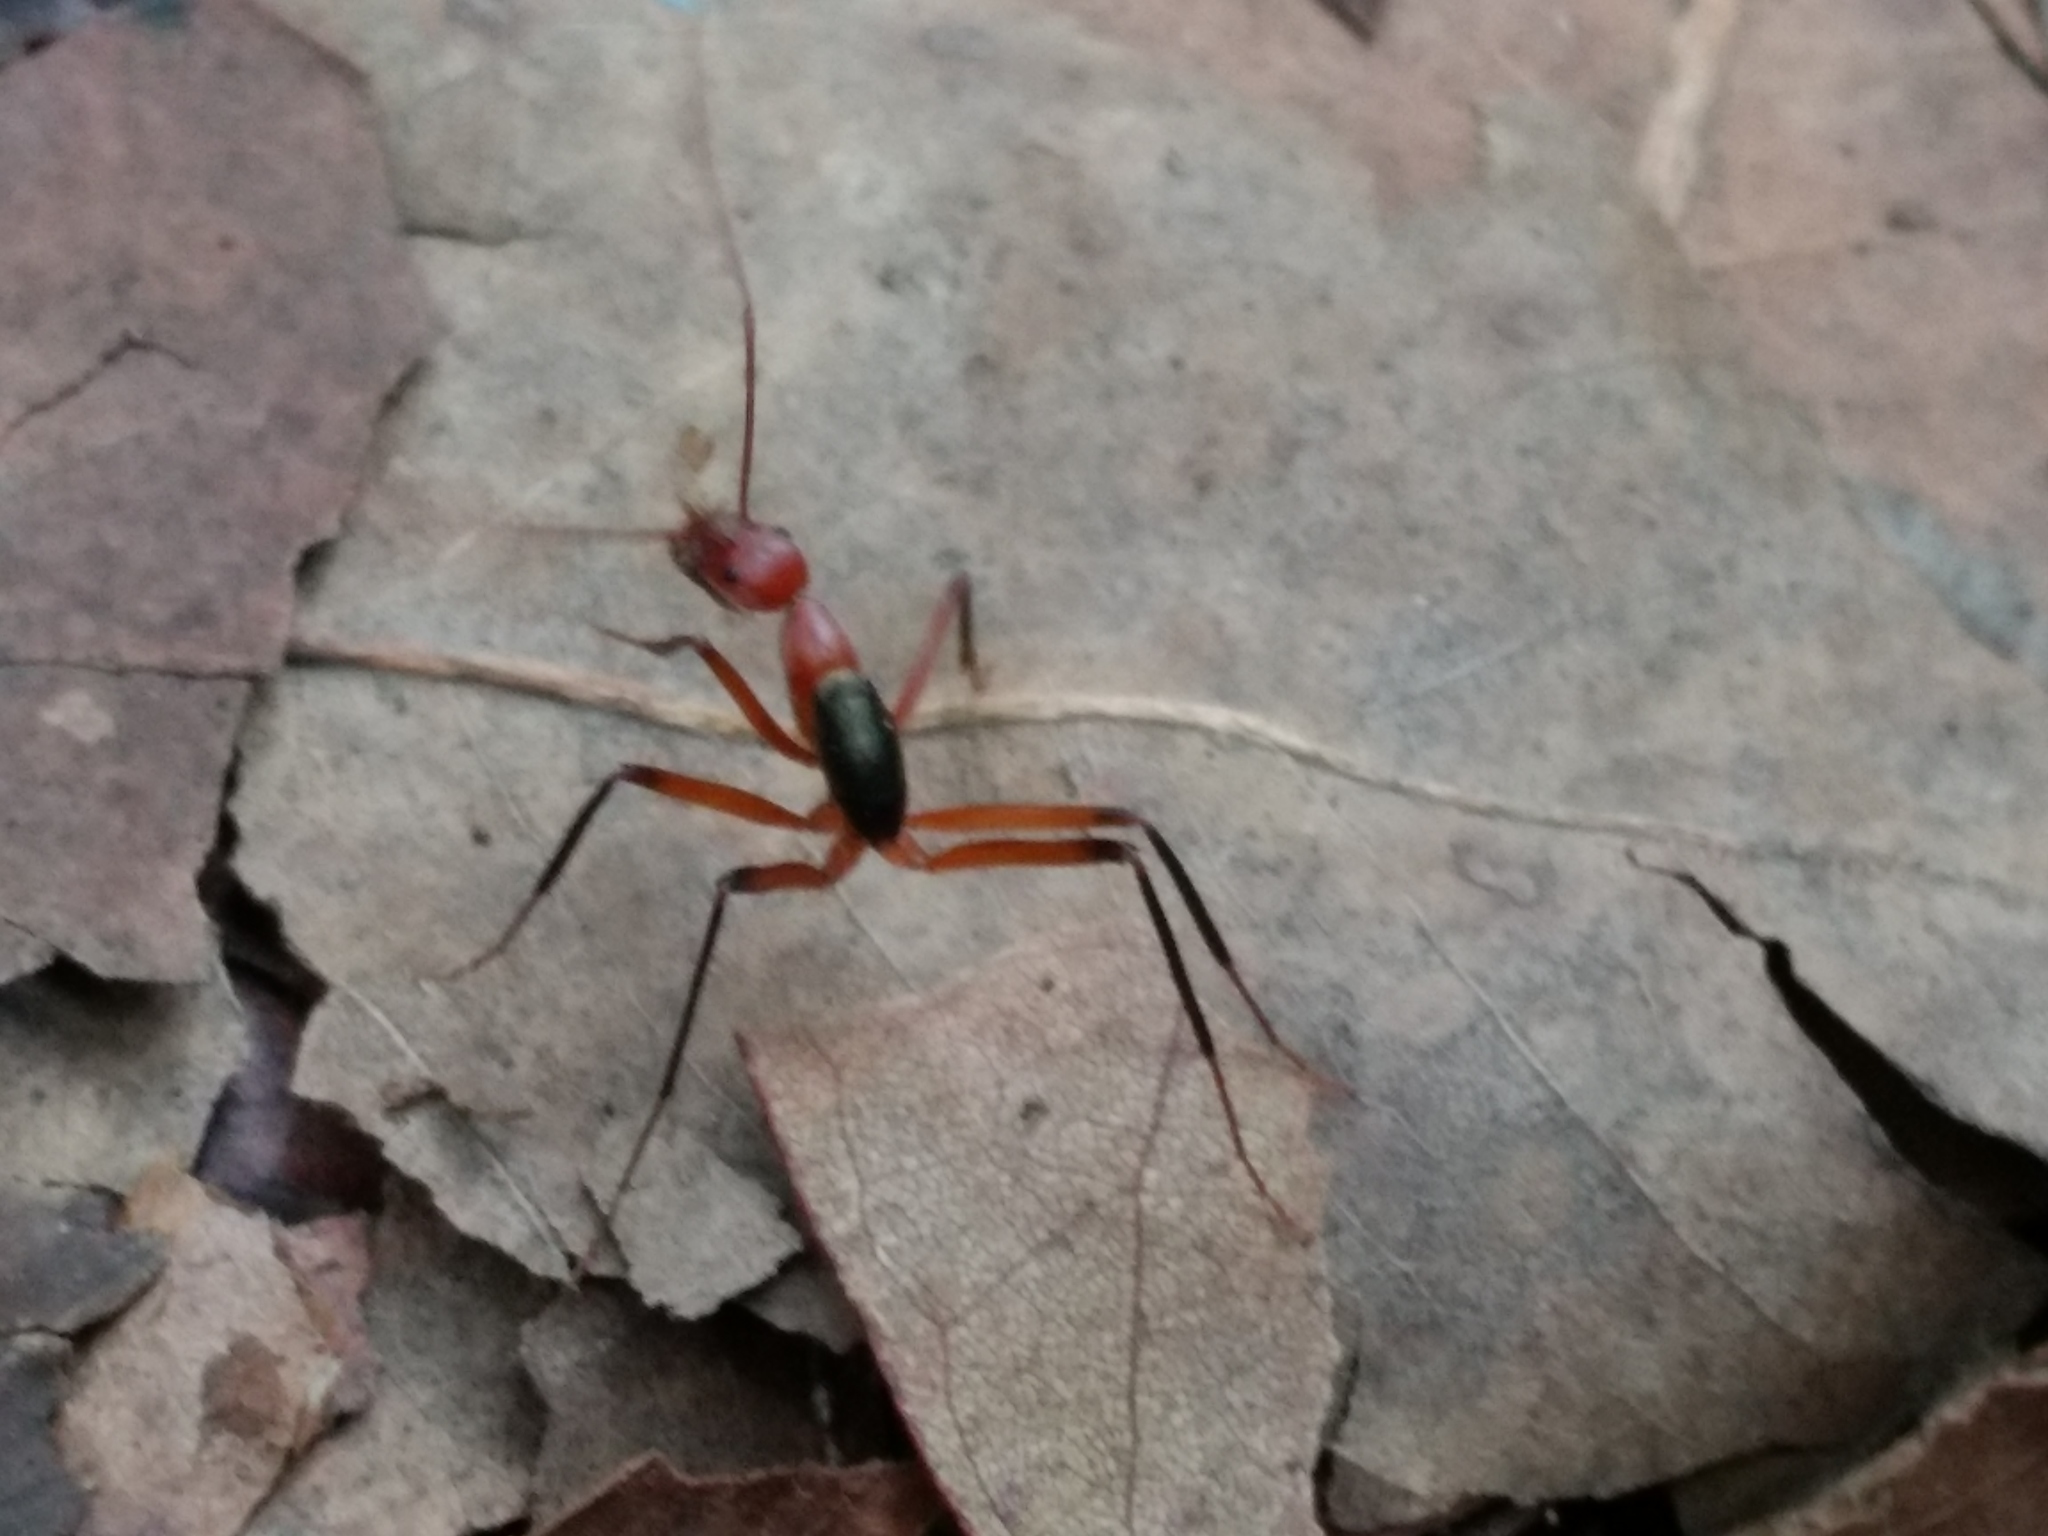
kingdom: Animalia
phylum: Arthropoda
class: Insecta
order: Hymenoptera
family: Formicidae
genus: Leptomyrmex
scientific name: Leptomyrmex tibialis
